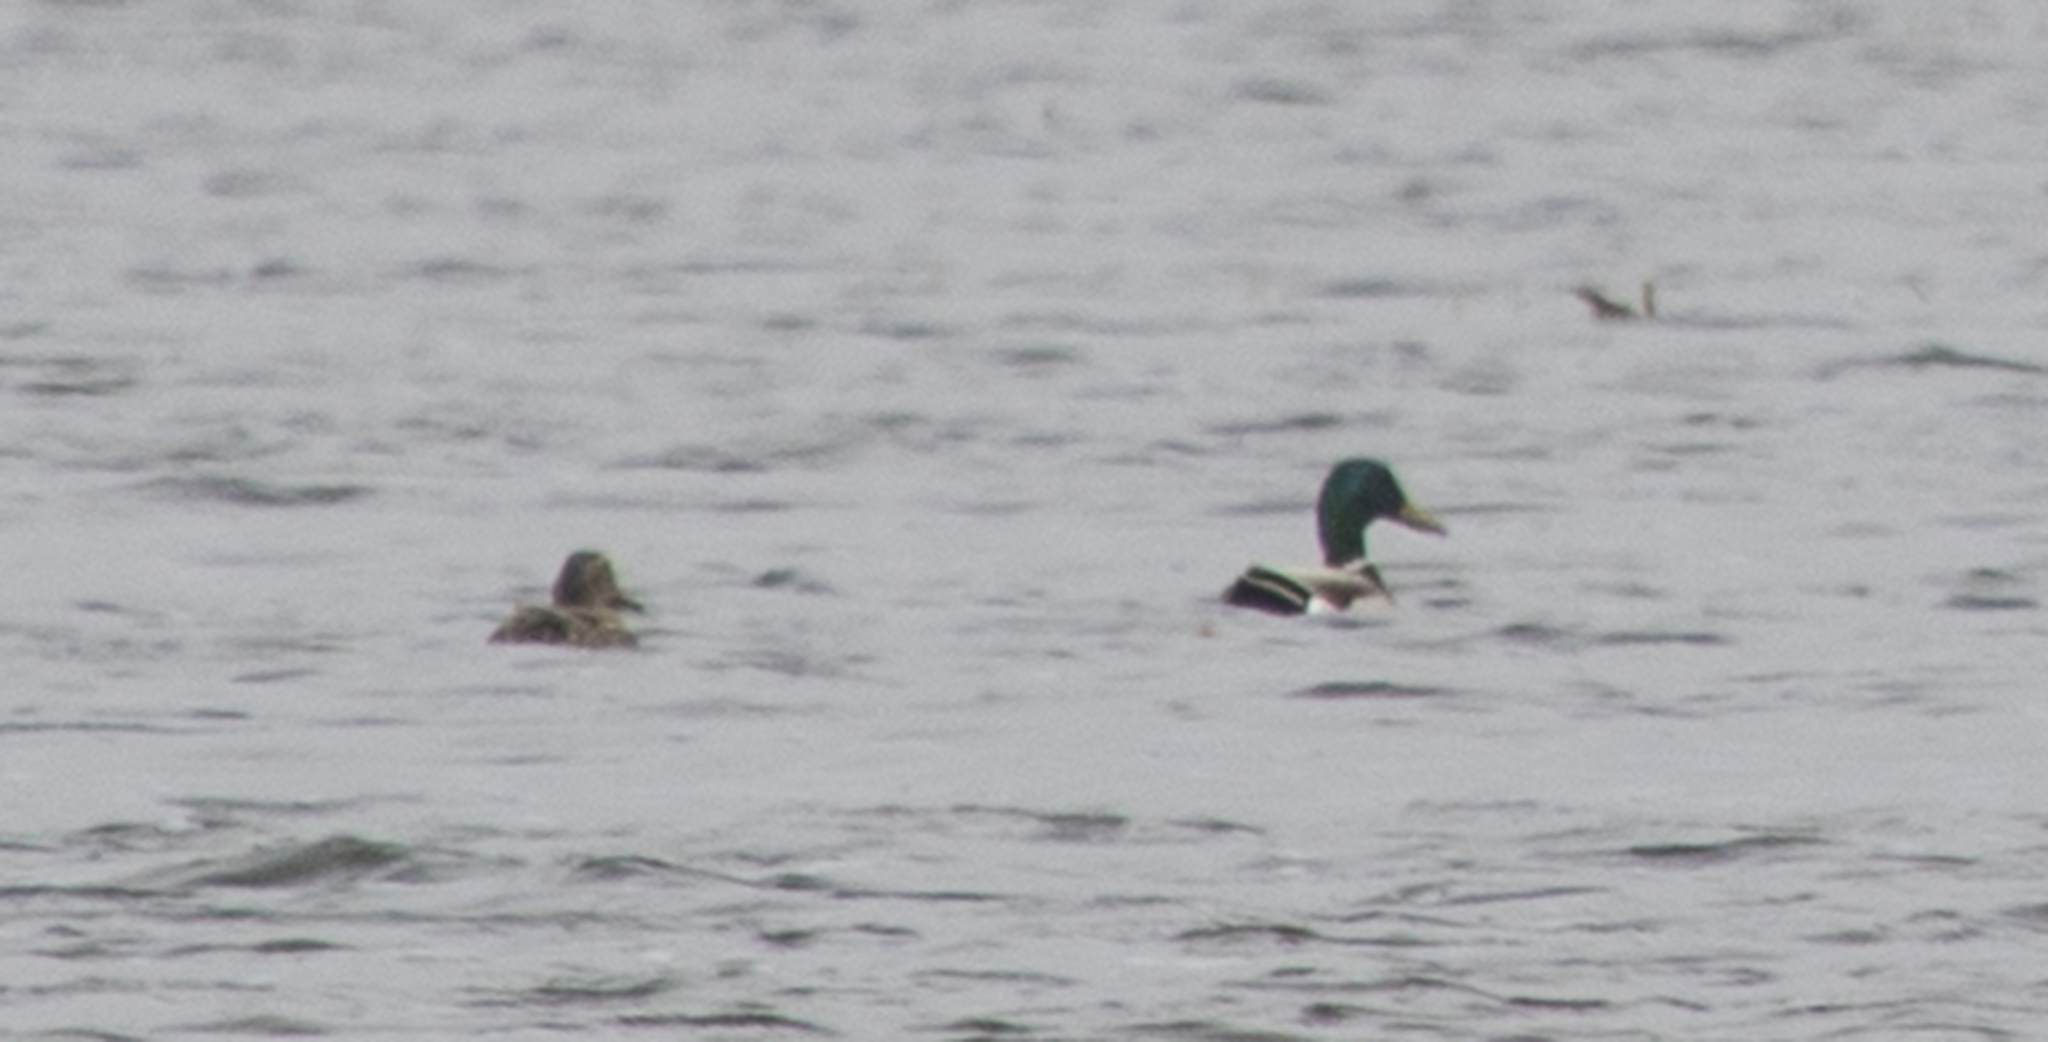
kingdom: Animalia
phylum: Chordata
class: Aves
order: Anseriformes
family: Anatidae
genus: Anas
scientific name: Anas platyrhynchos
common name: Mallard
